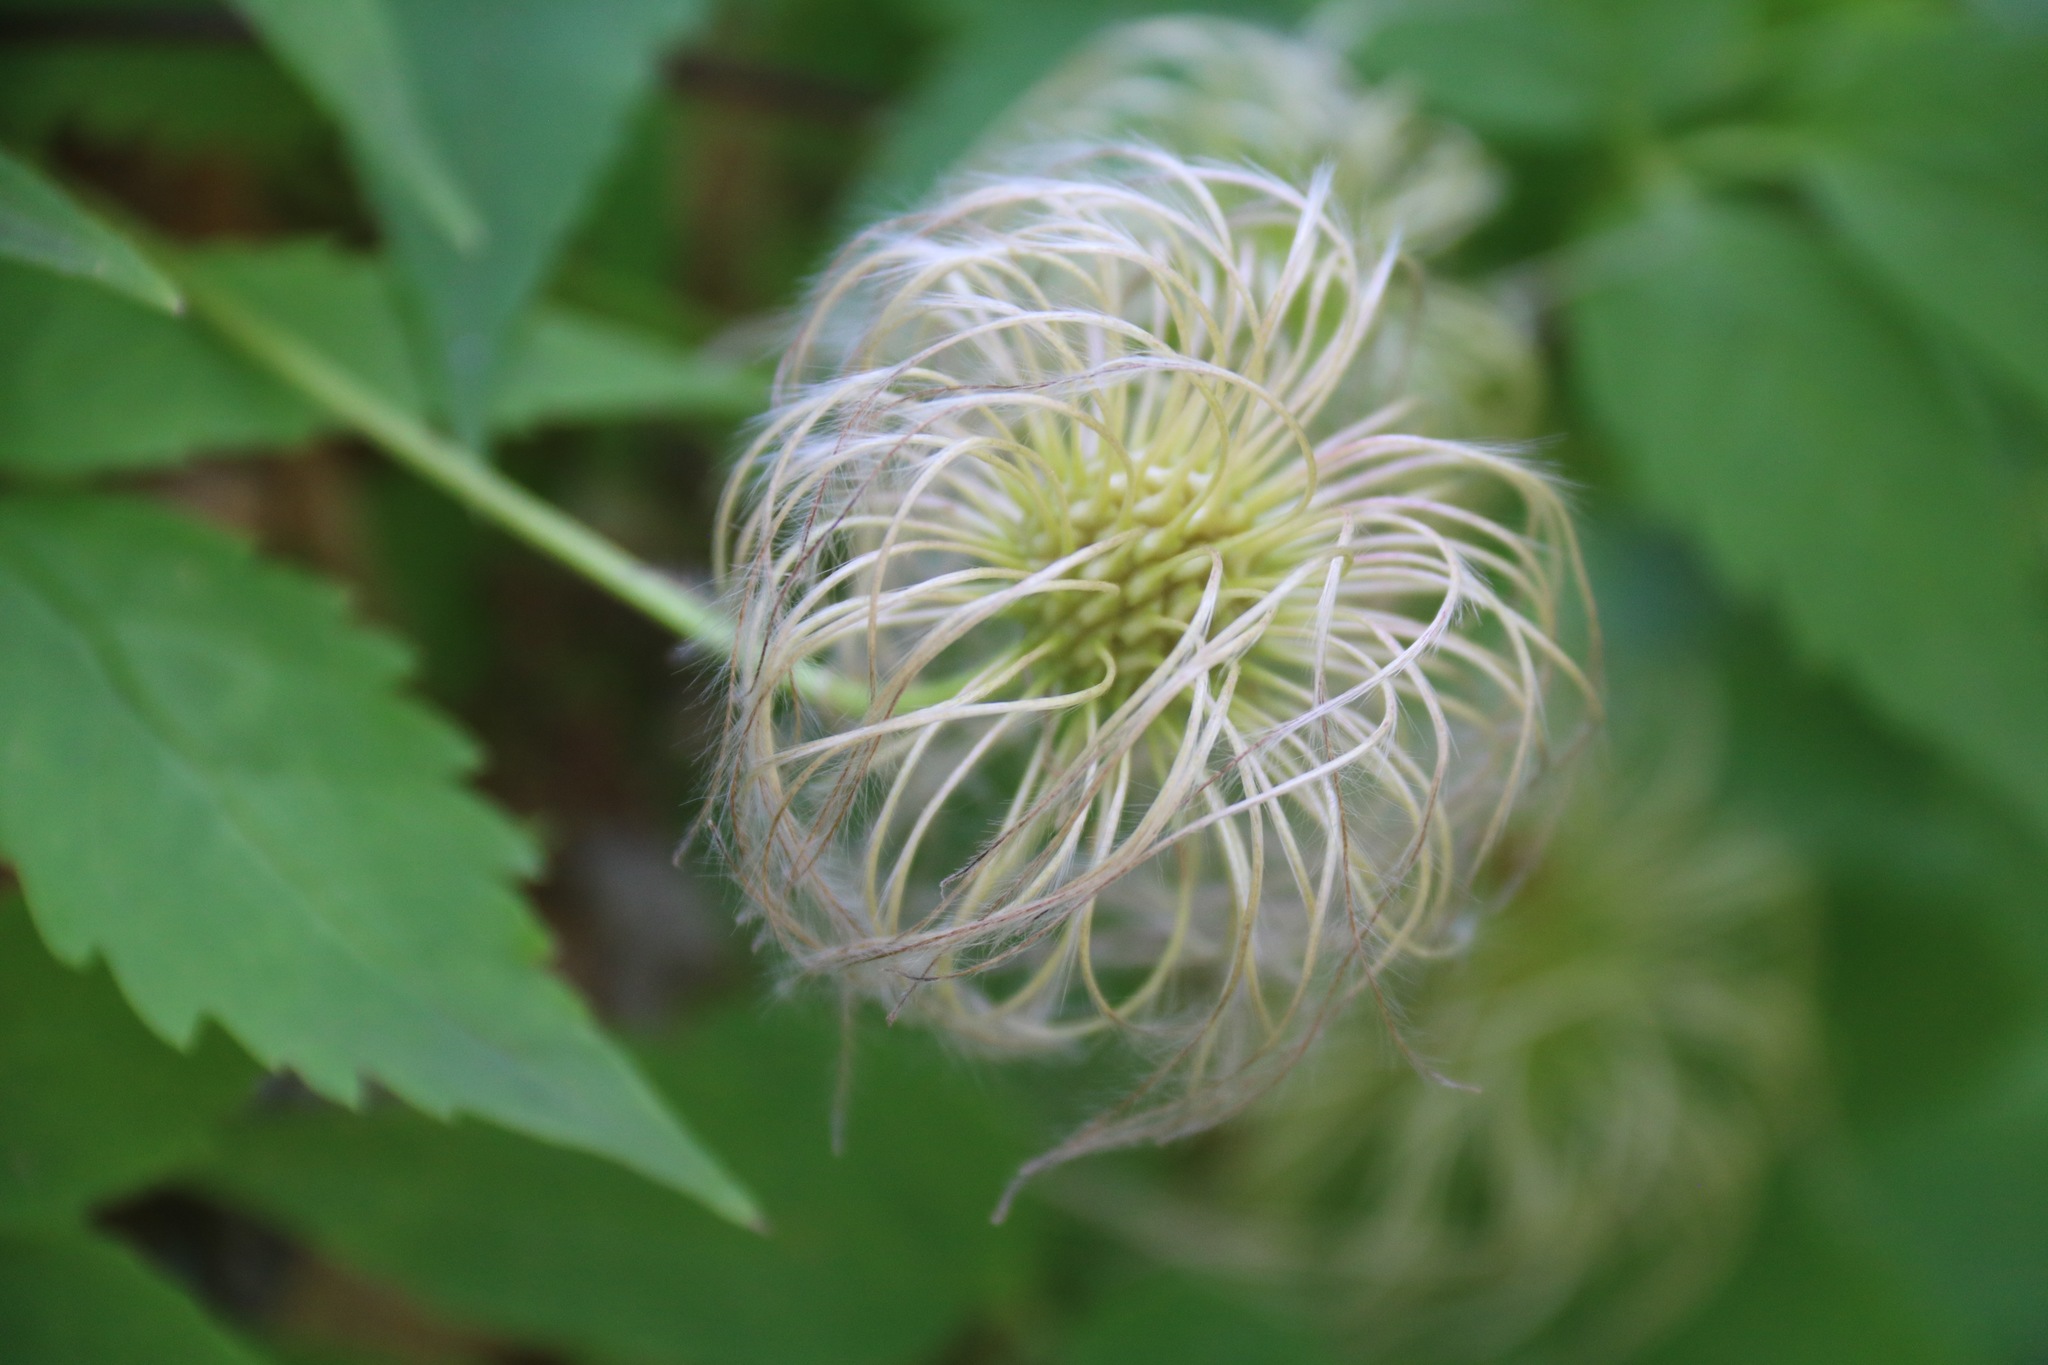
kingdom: Plantae
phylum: Tracheophyta
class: Magnoliopsida
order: Ranunculales
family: Ranunculaceae
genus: Clematis
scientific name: Clematis sibirica
